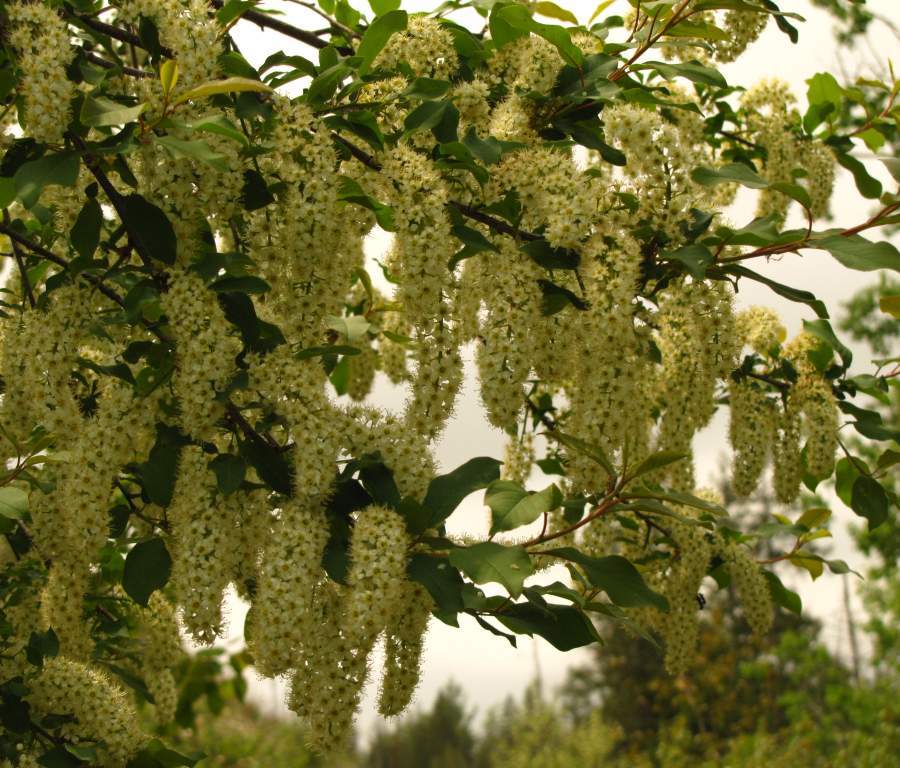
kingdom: Plantae
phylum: Tracheophyta
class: Magnoliopsida
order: Rosales
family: Rosaceae
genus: Prunus
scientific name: Prunus virginiana
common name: Chokecherry
